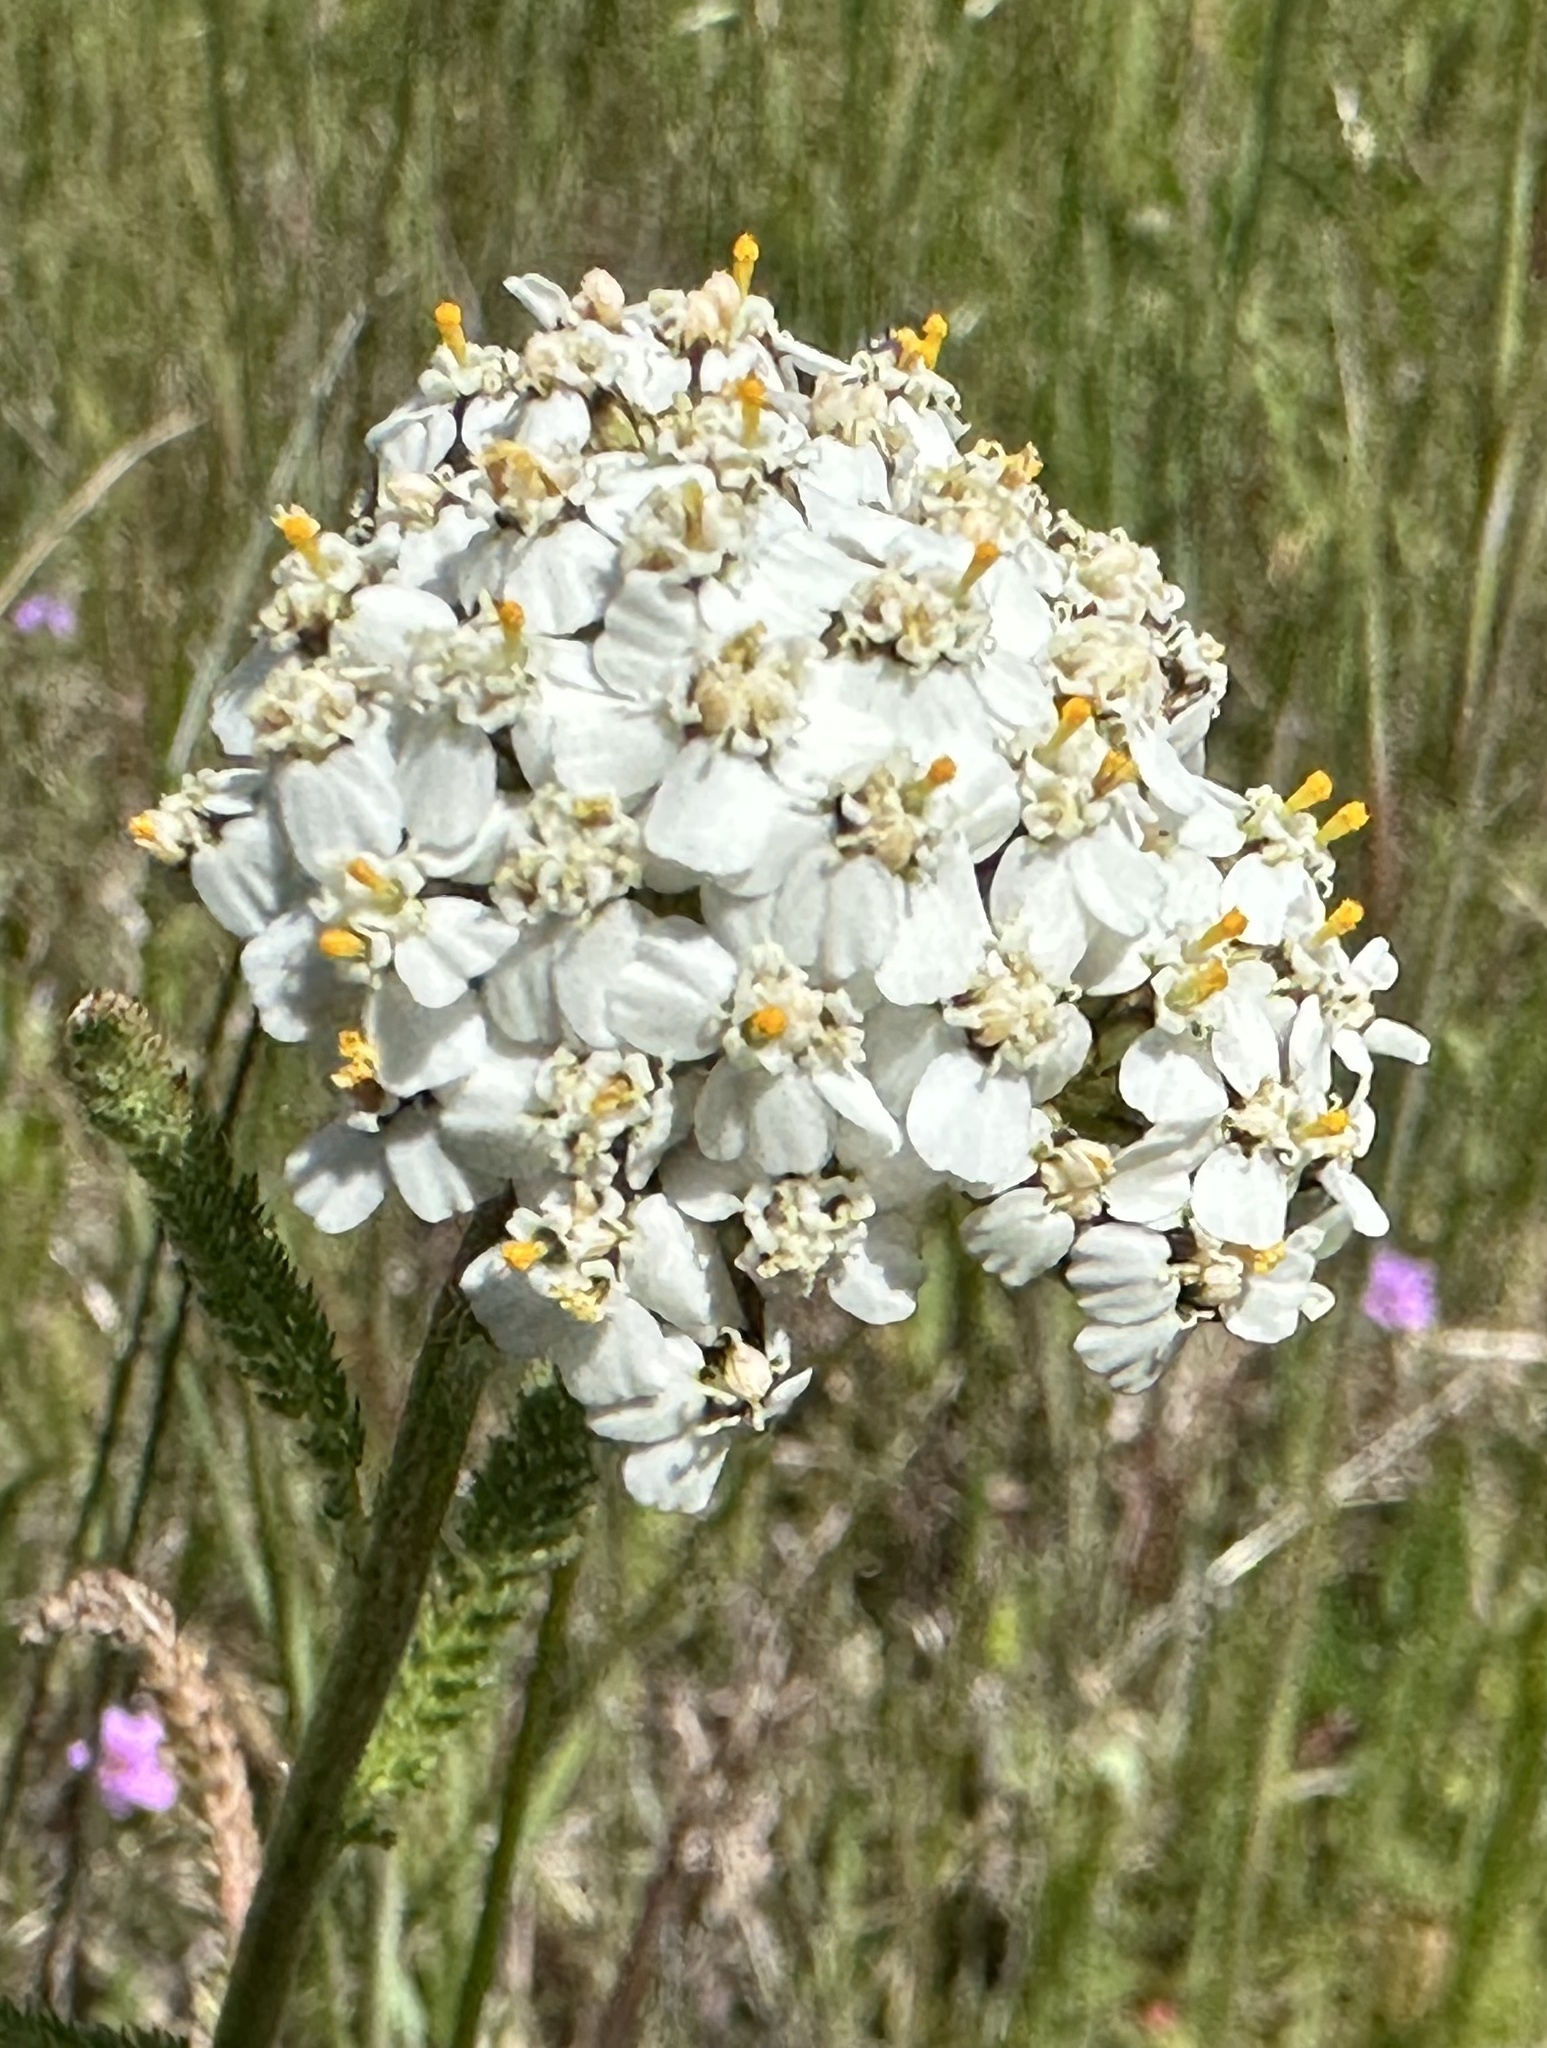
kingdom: Plantae
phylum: Tracheophyta
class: Magnoliopsida
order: Asterales
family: Asteraceae
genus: Achillea
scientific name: Achillea millefolium
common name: Yarrow
